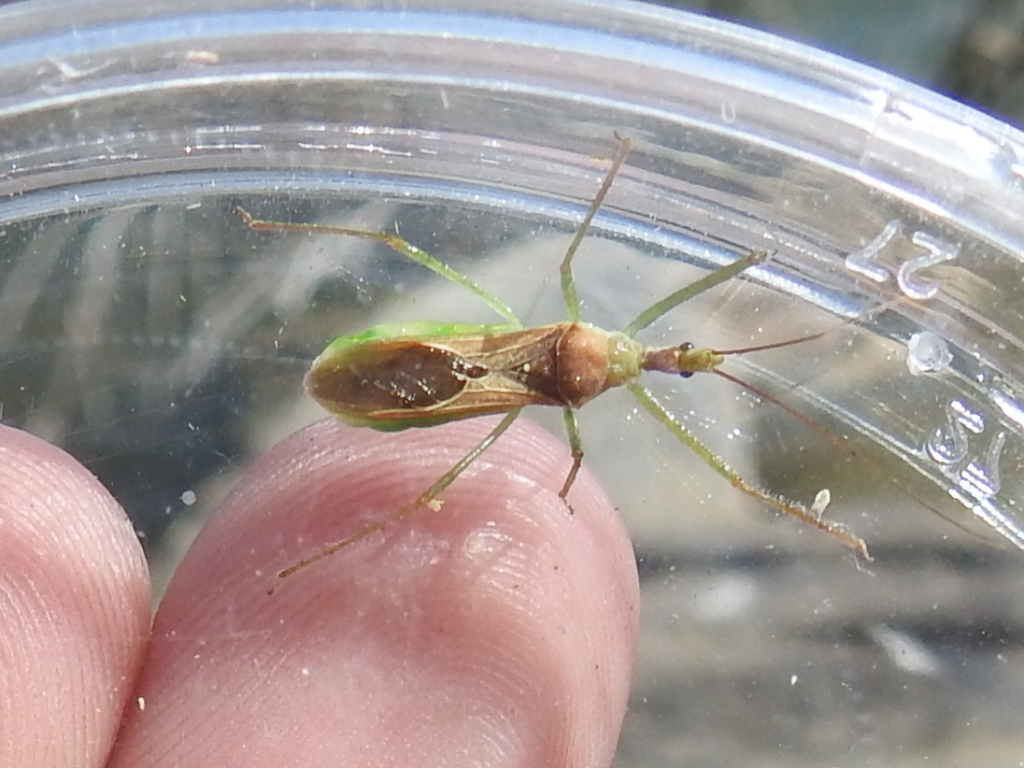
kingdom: Animalia
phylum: Arthropoda
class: Insecta
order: Hemiptera
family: Reduviidae
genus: Zelus
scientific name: Zelus renardii
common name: Assassin bug
